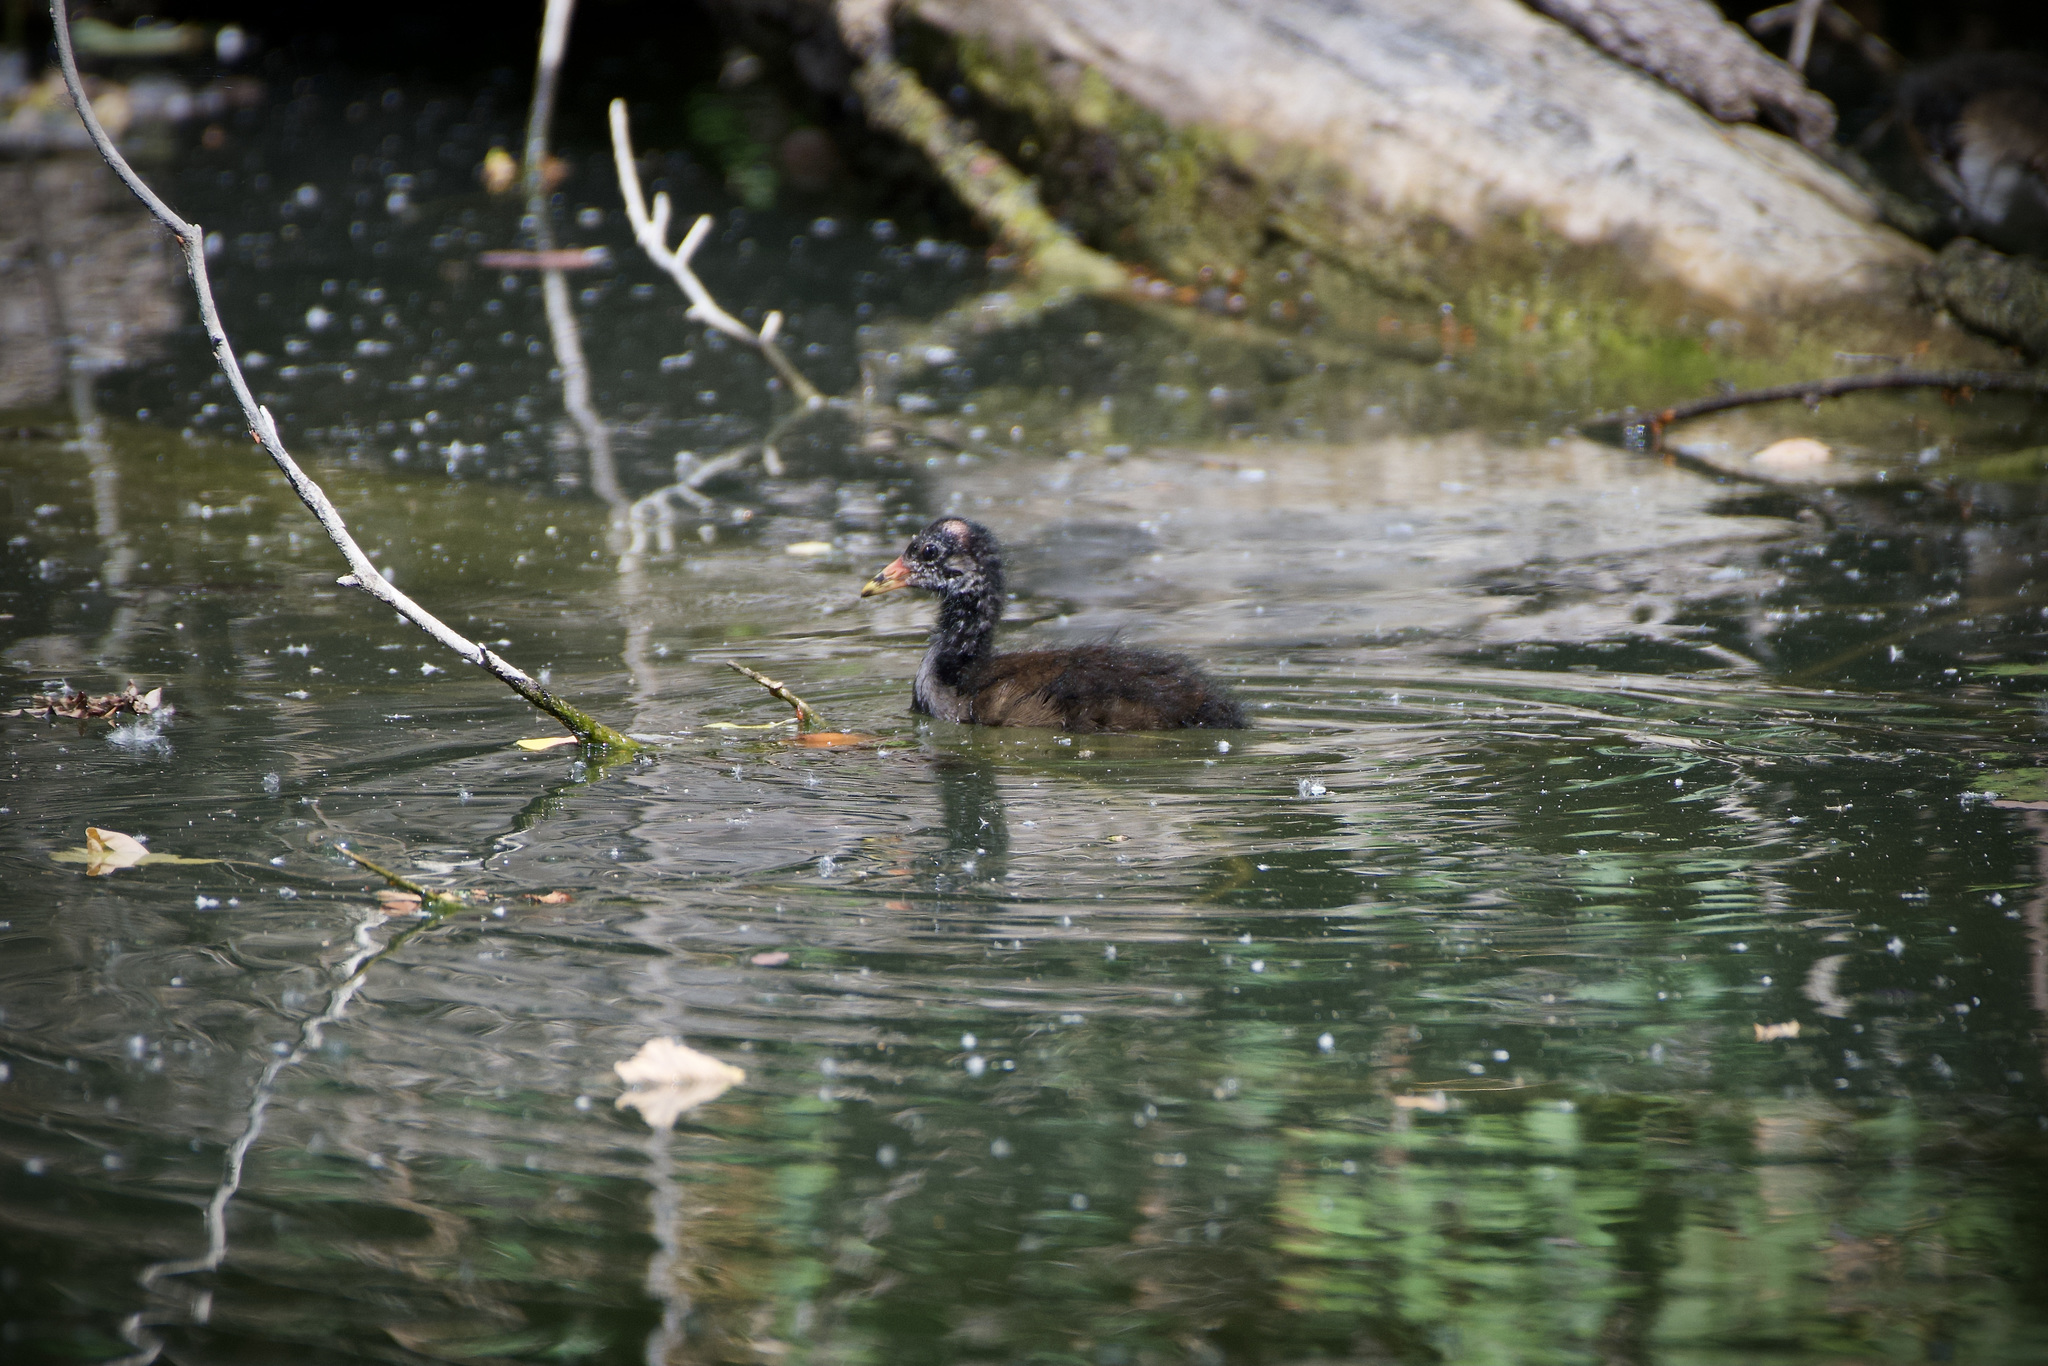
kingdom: Animalia
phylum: Chordata
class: Aves
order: Gruiformes
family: Rallidae
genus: Gallinula
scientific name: Gallinula chloropus
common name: Common moorhen
